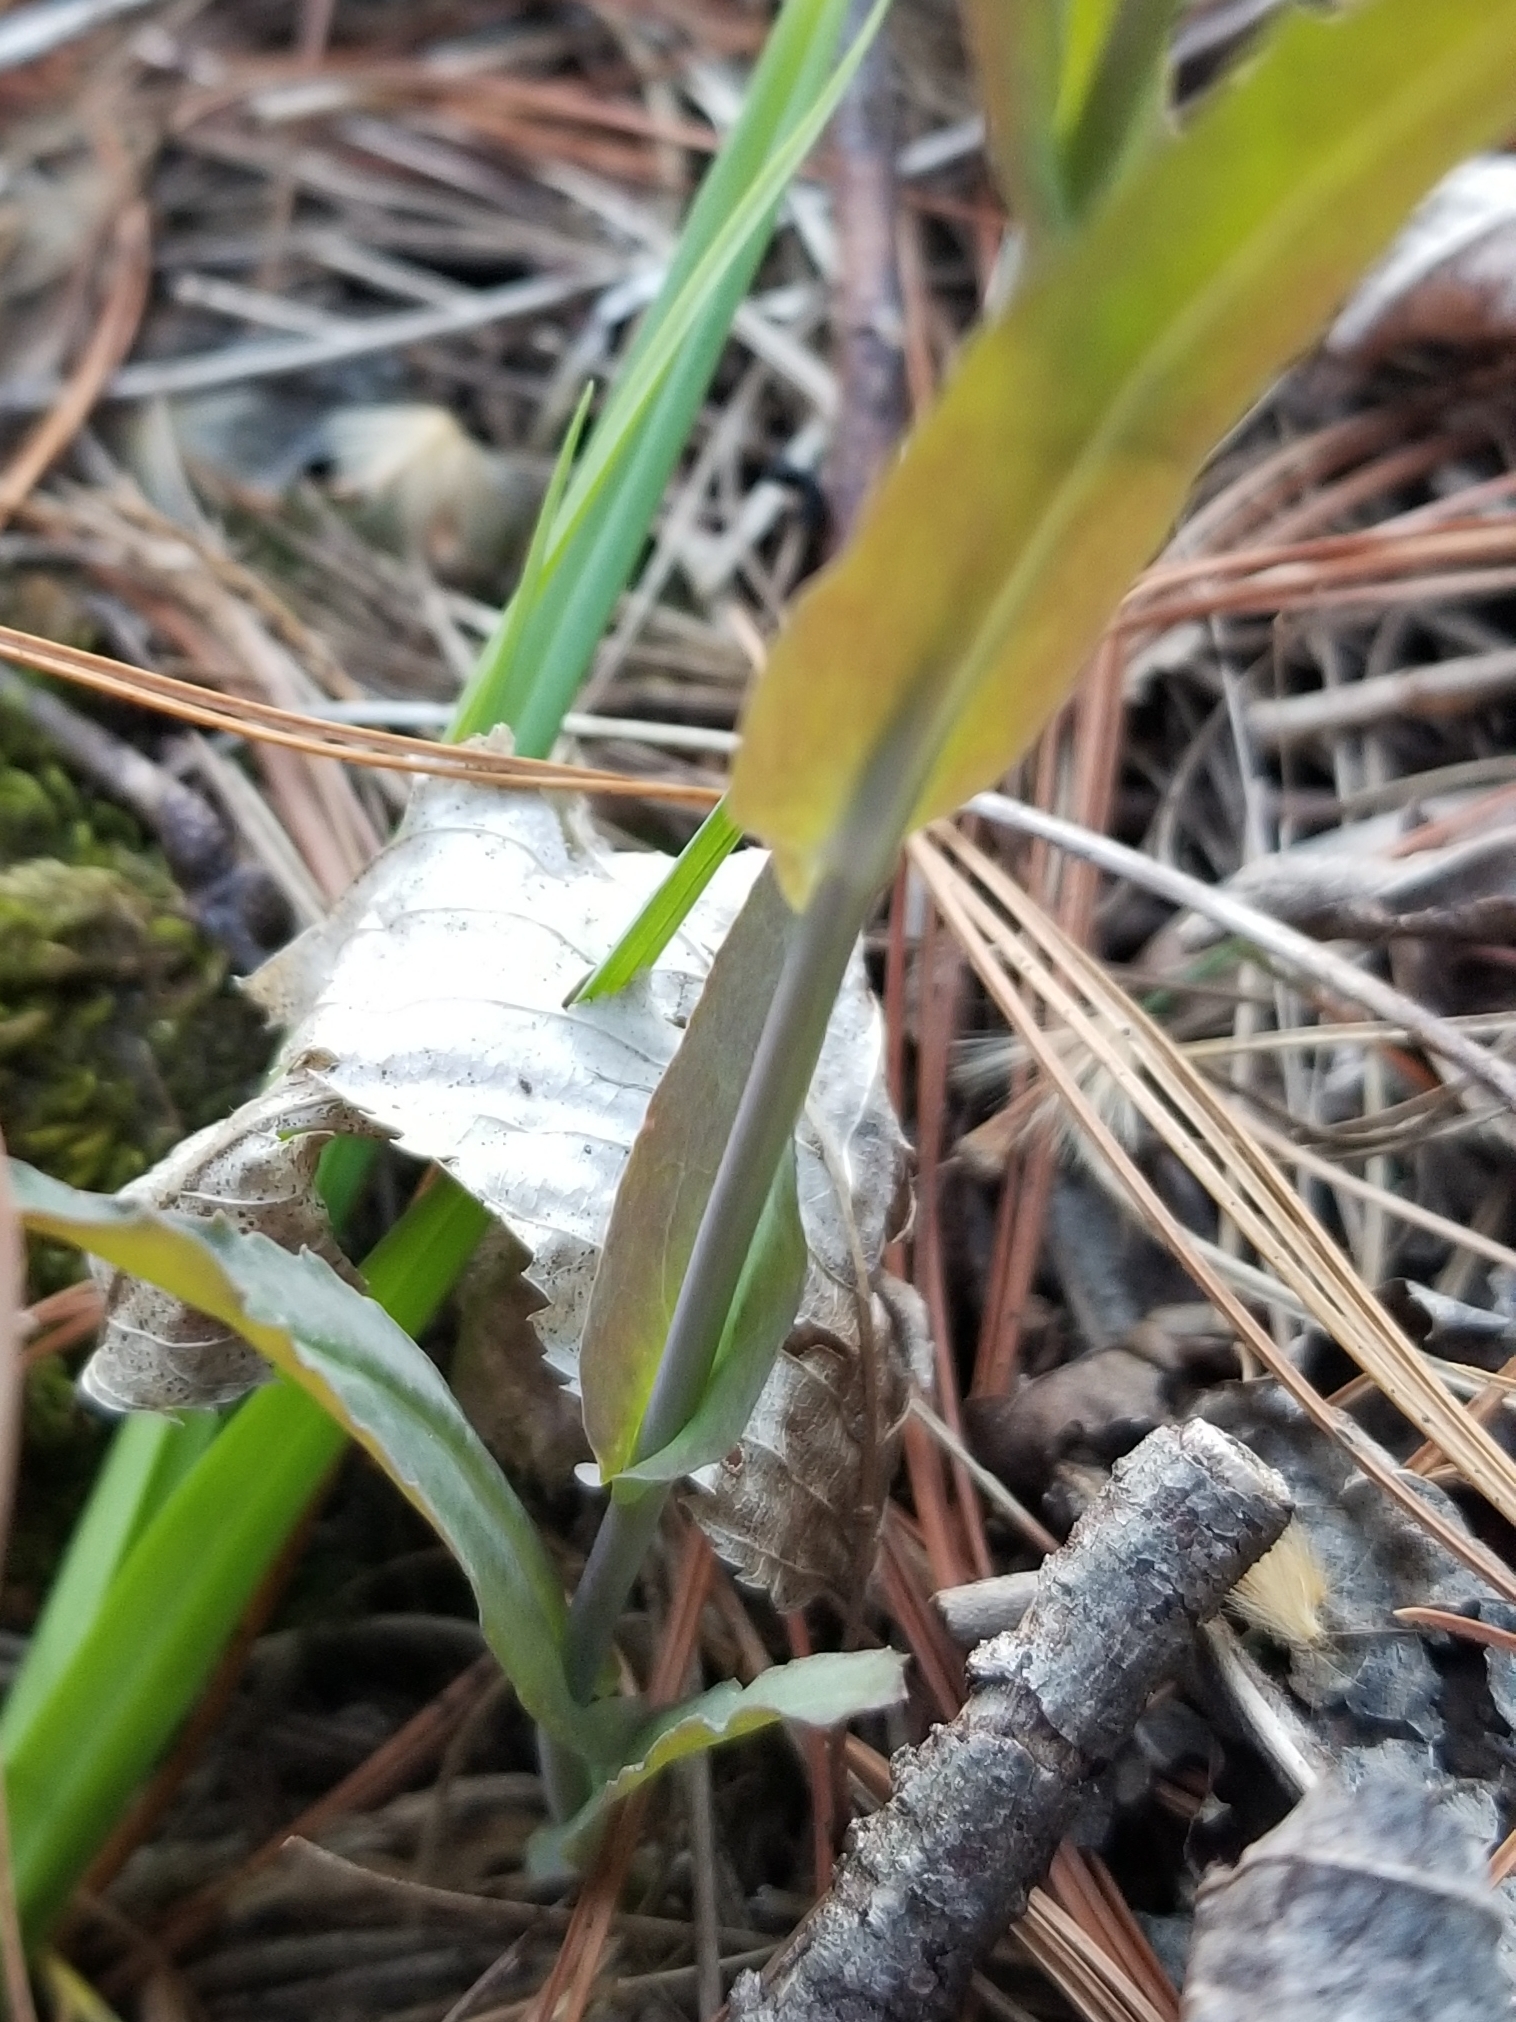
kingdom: Plantae
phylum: Tracheophyta
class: Magnoliopsida
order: Brassicales
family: Brassicaceae
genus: Borodinia
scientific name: Borodinia laevigata
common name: Smooth rockcress
